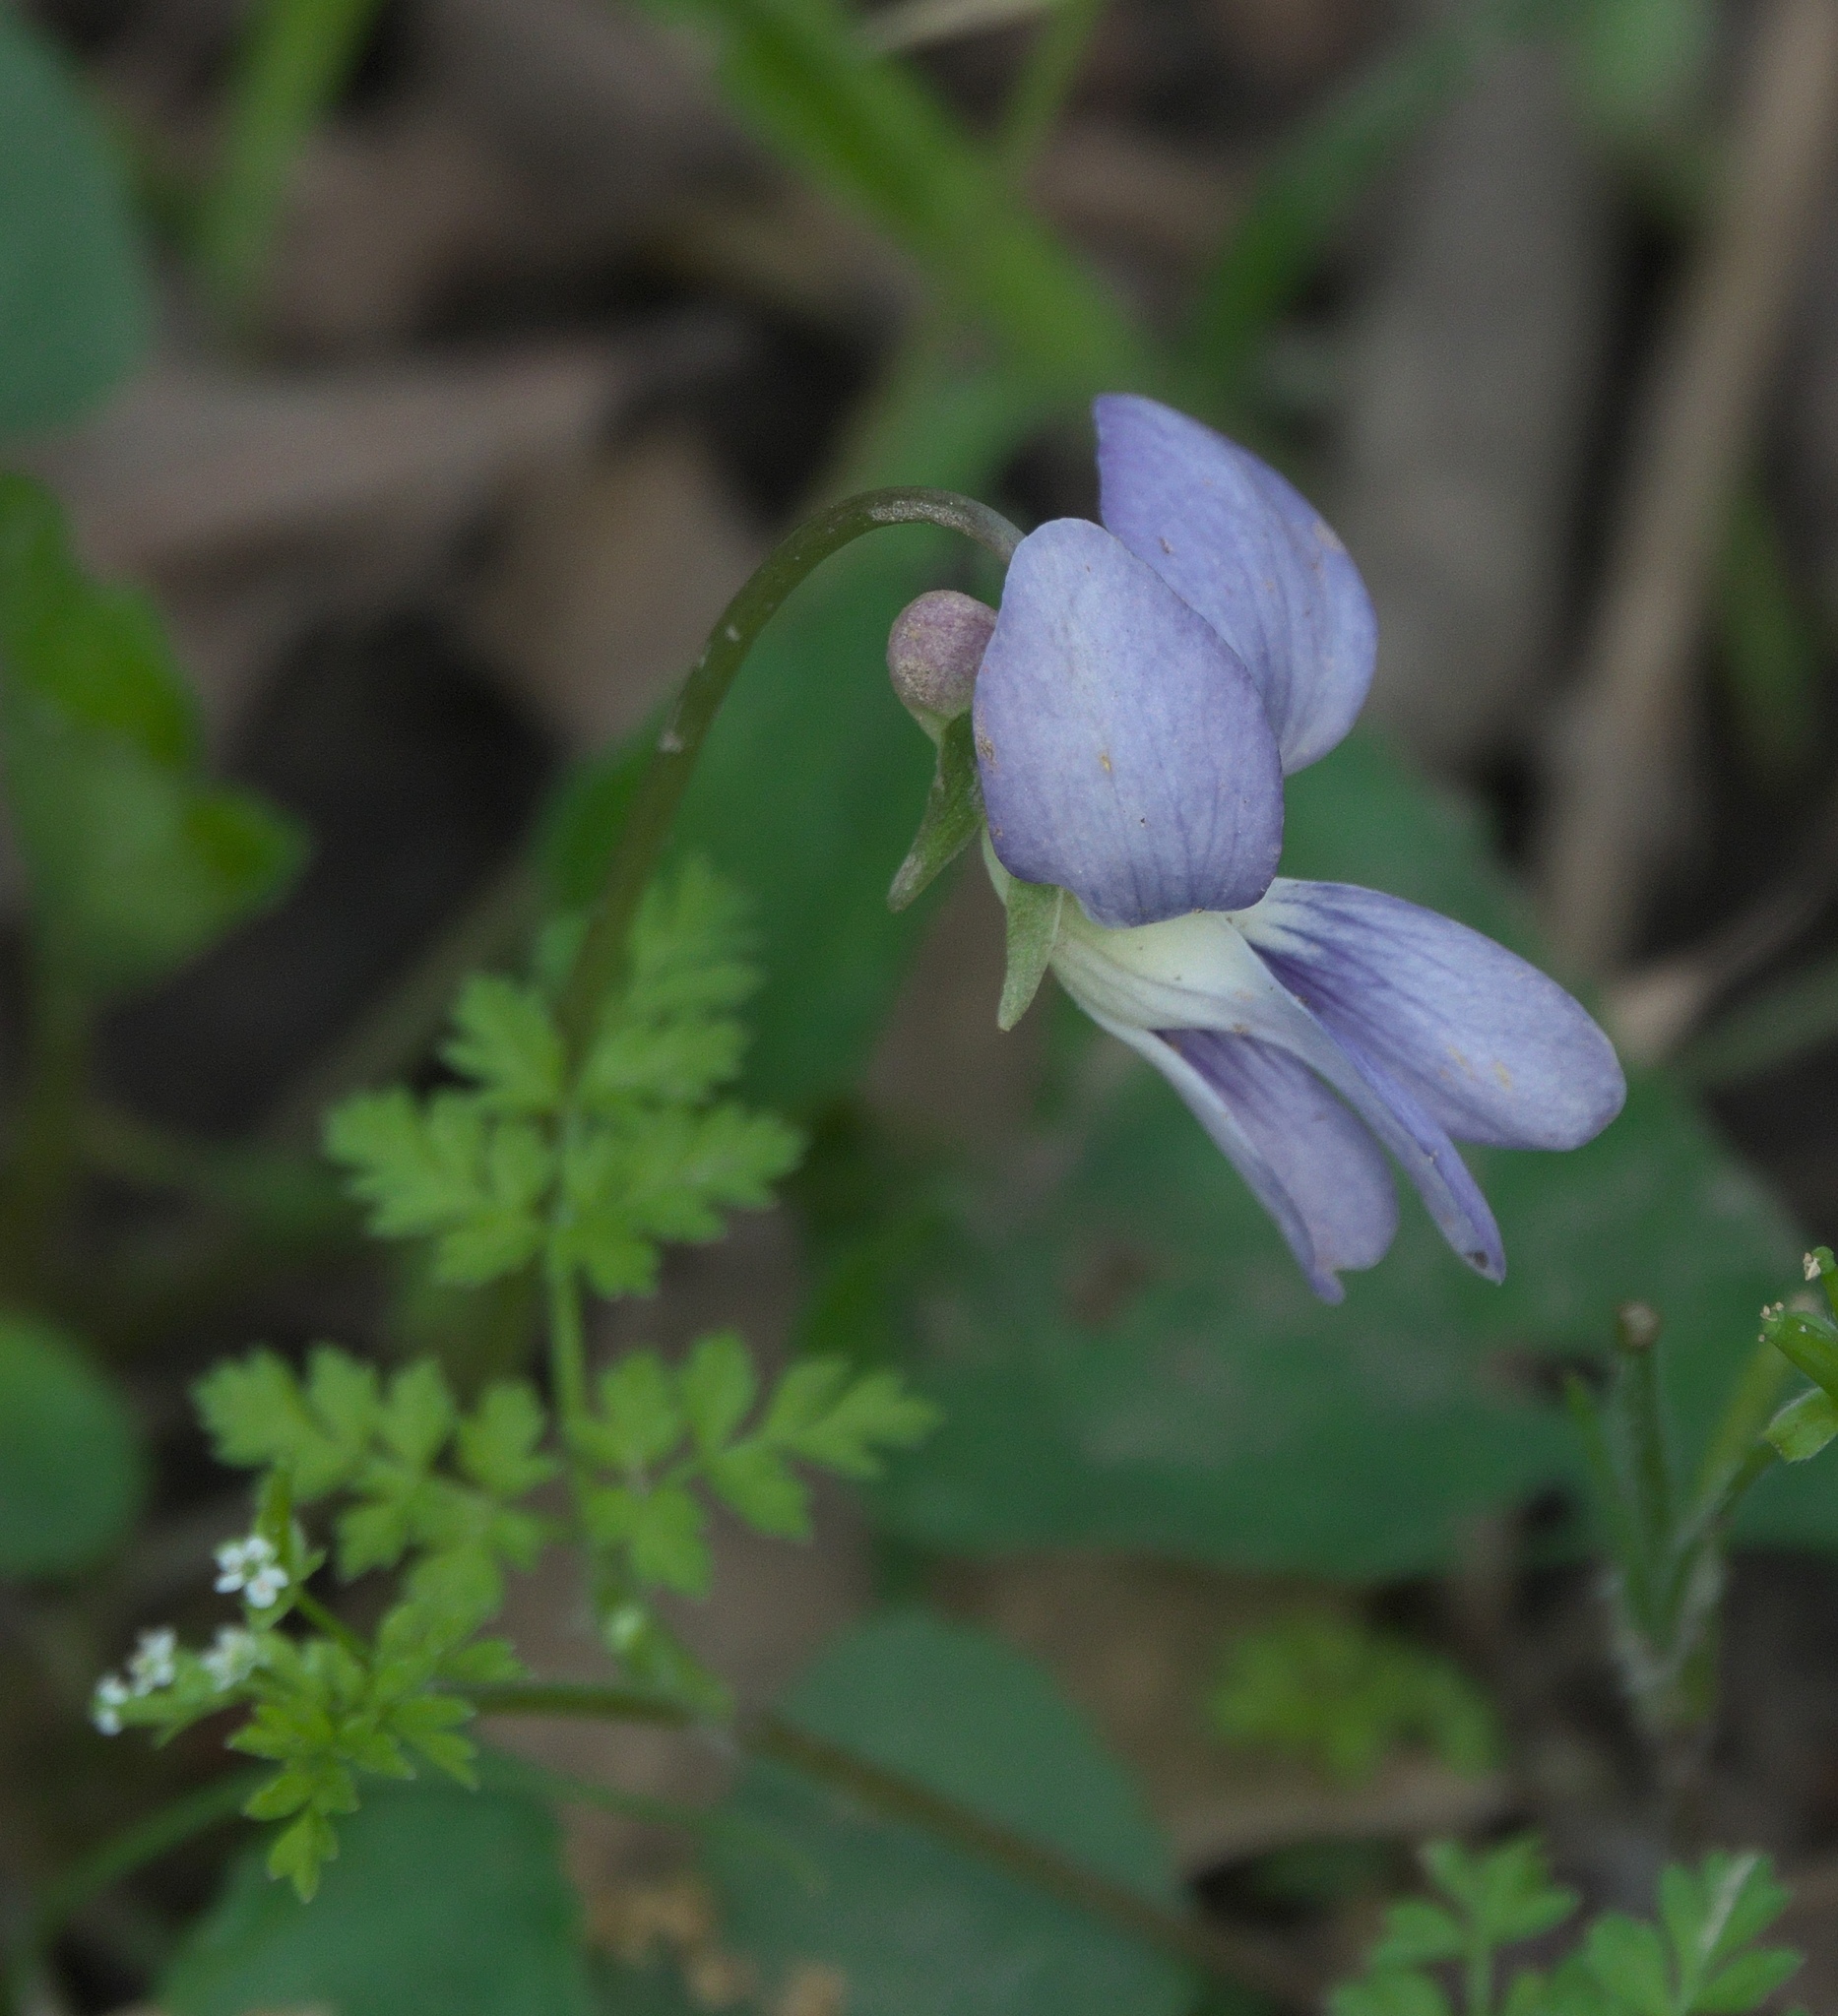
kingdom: Plantae
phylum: Tracheophyta
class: Magnoliopsida
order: Malpighiales
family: Violaceae
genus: Viola
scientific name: Viola sororia
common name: Dooryard violet
